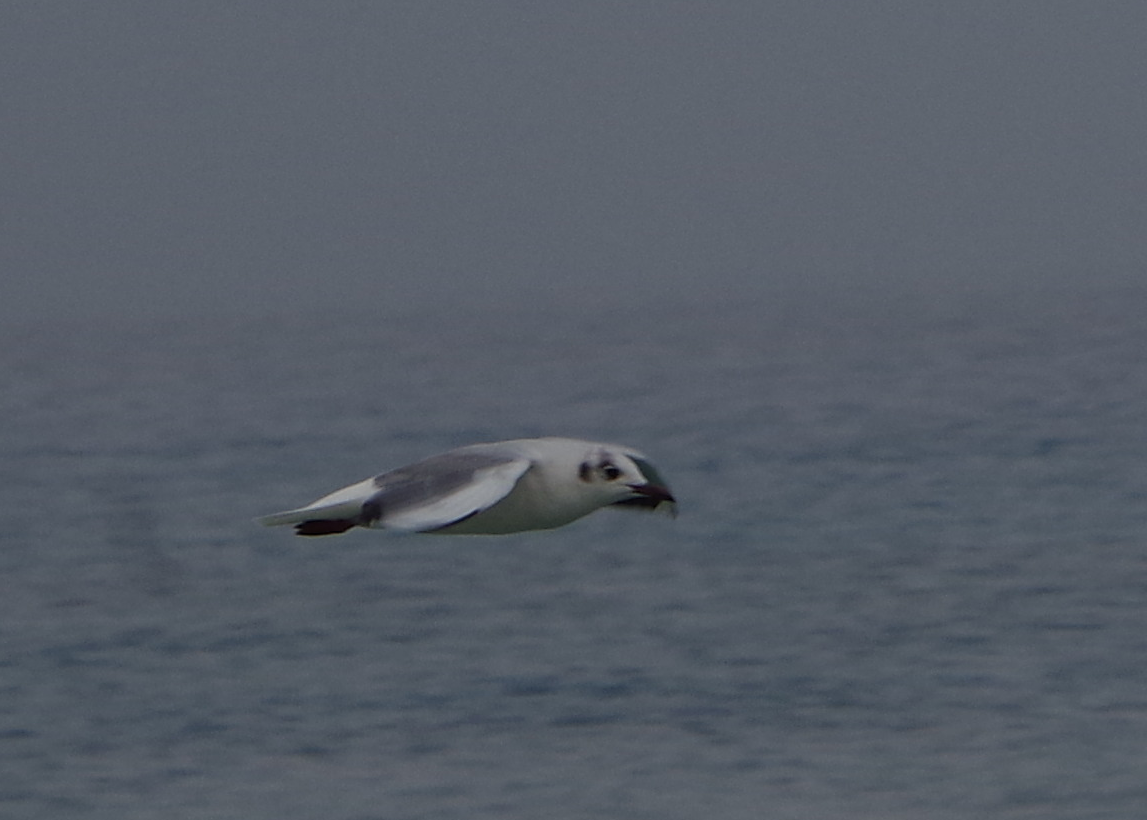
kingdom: Animalia
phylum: Chordata
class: Aves
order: Charadriiformes
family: Laridae
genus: Chroicocephalus
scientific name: Chroicocephalus ridibundus
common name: Black-headed gull
